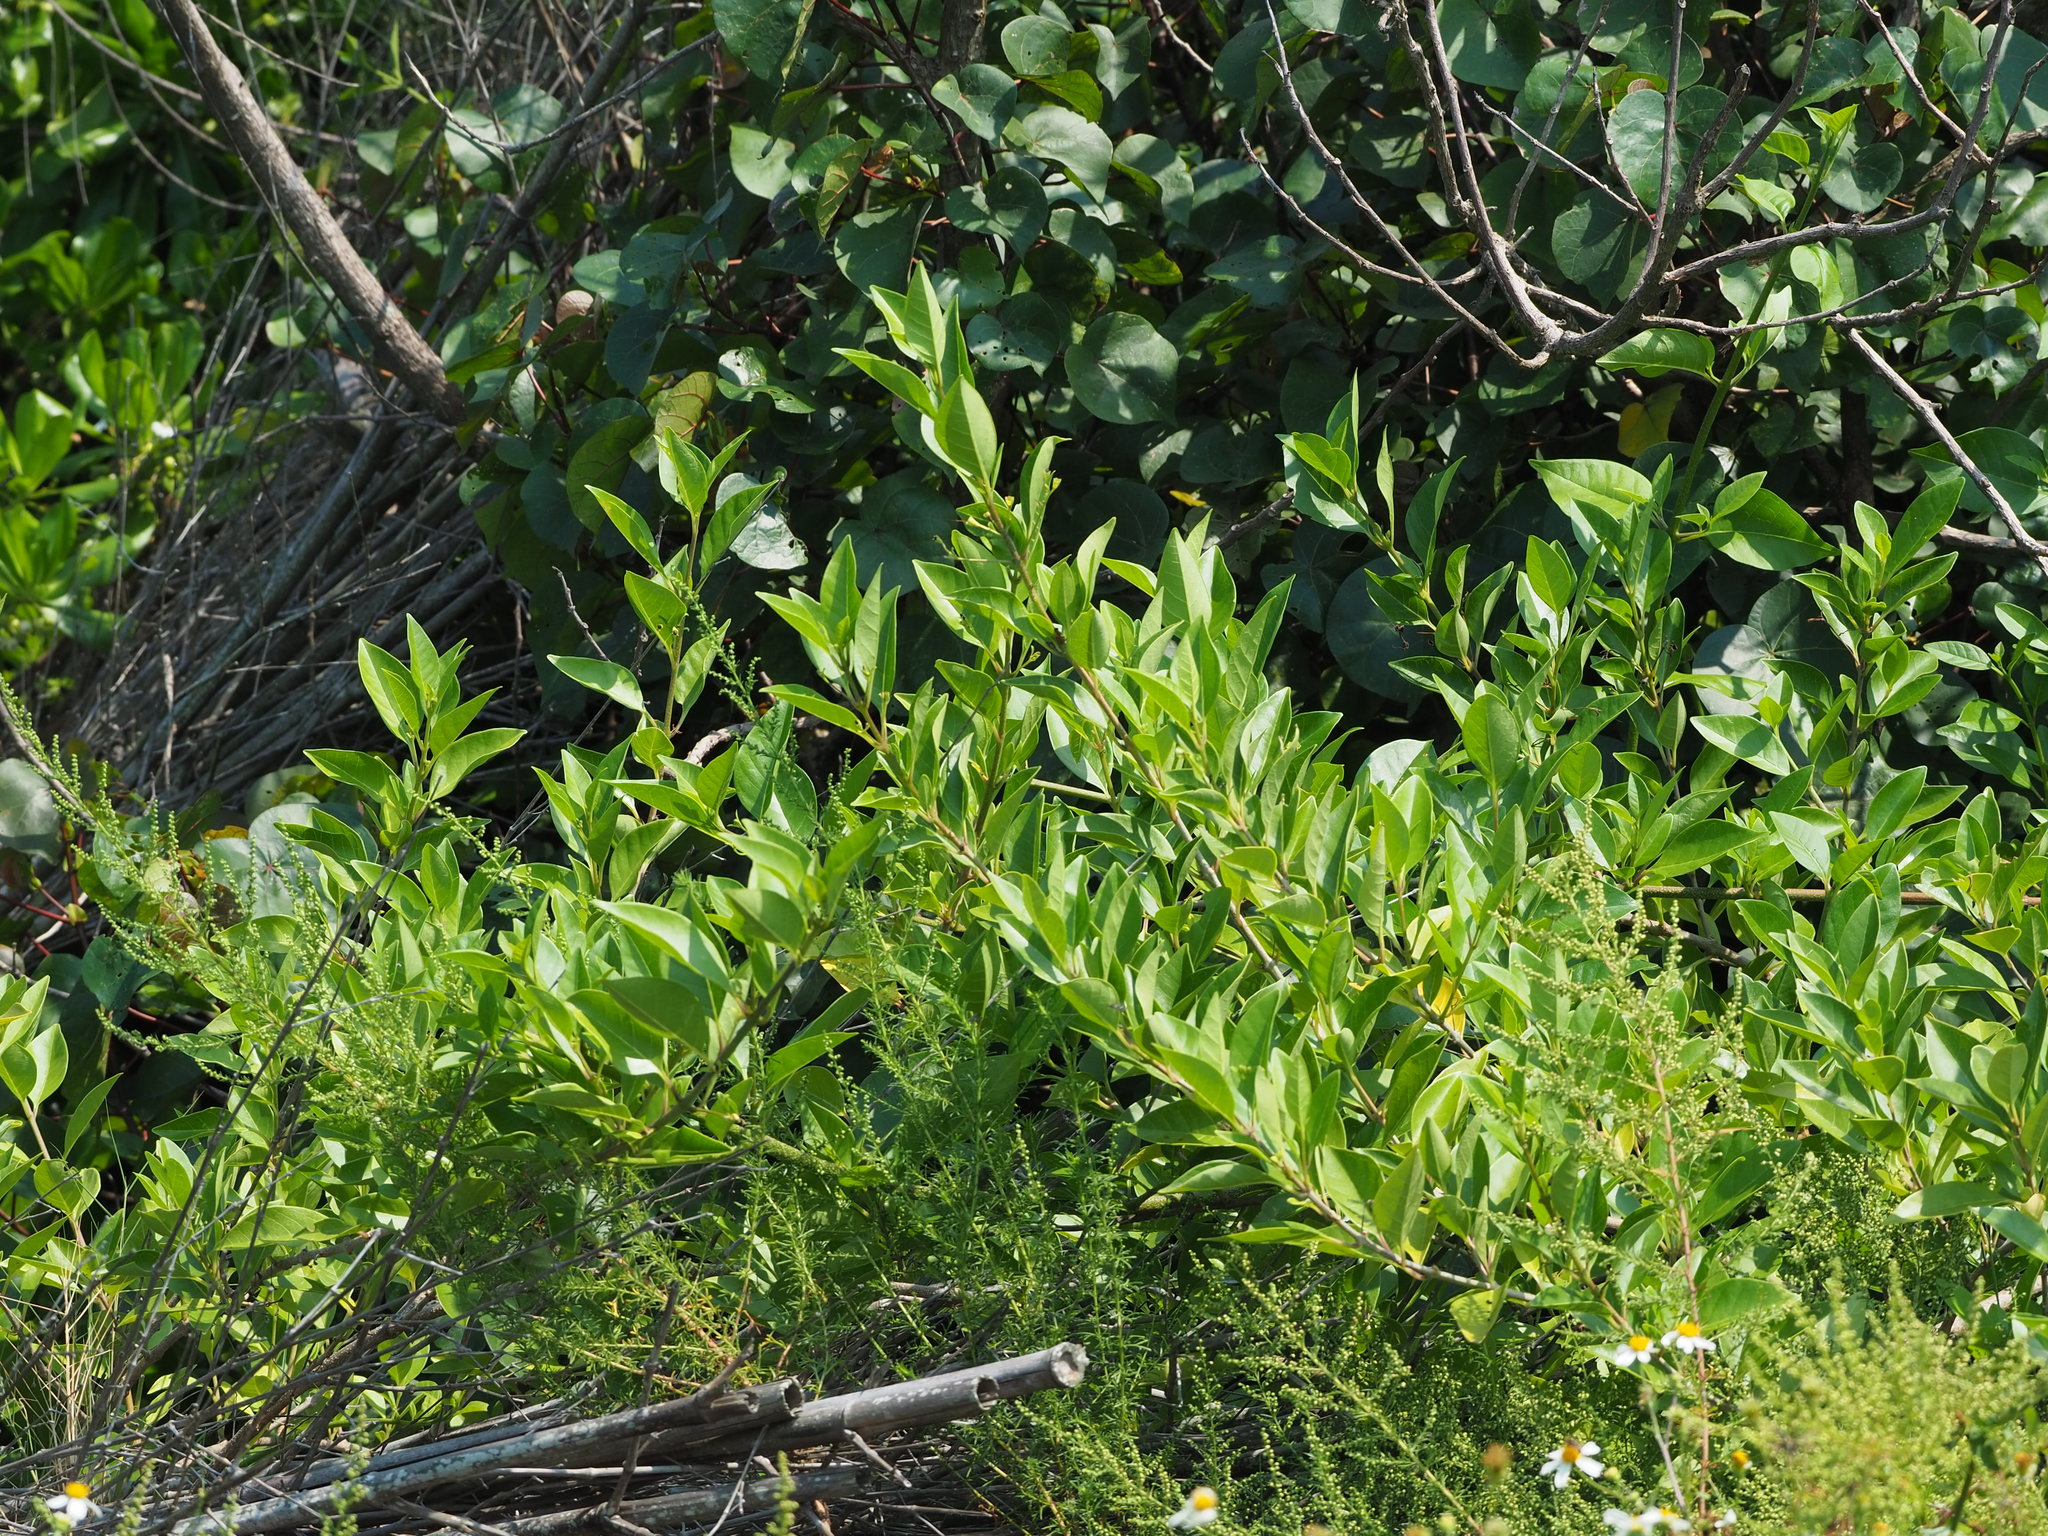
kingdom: Plantae
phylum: Tracheophyta
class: Magnoliopsida
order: Lamiales
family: Lamiaceae
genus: Volkameria
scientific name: Volkameria inermis
